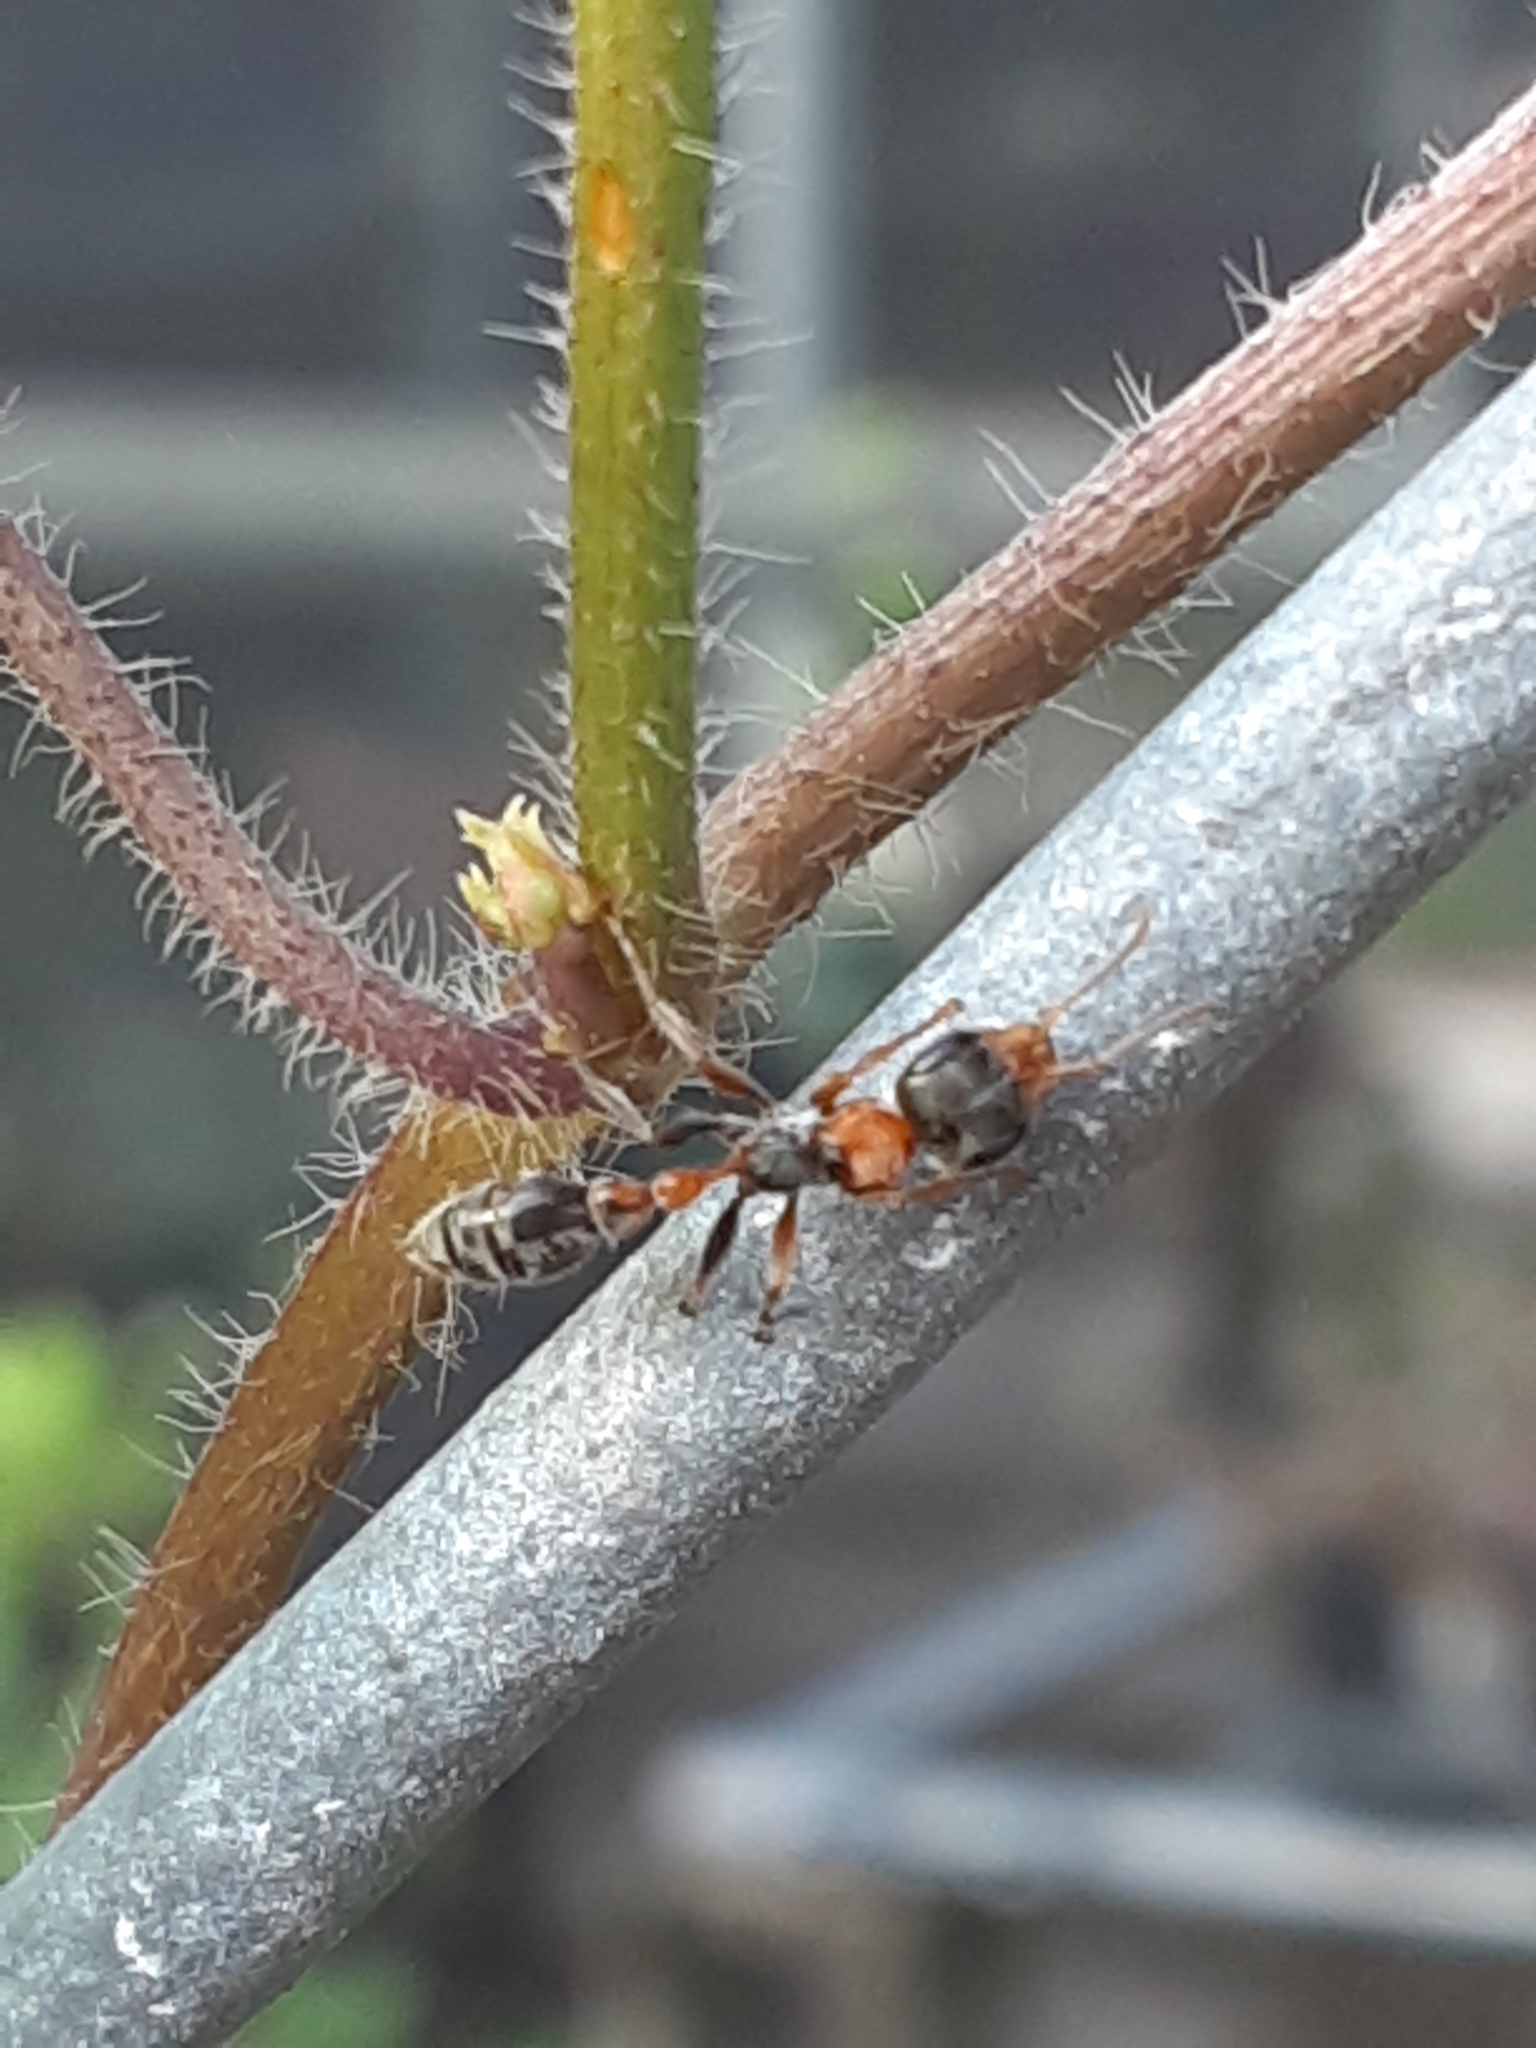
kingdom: Animalia
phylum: Arthropoda
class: Insecta
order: Hymenoptera
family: Formicidae
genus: Pseudomyrmex
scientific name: Pseudomyrmex gracilis
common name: Graceful twig ant
